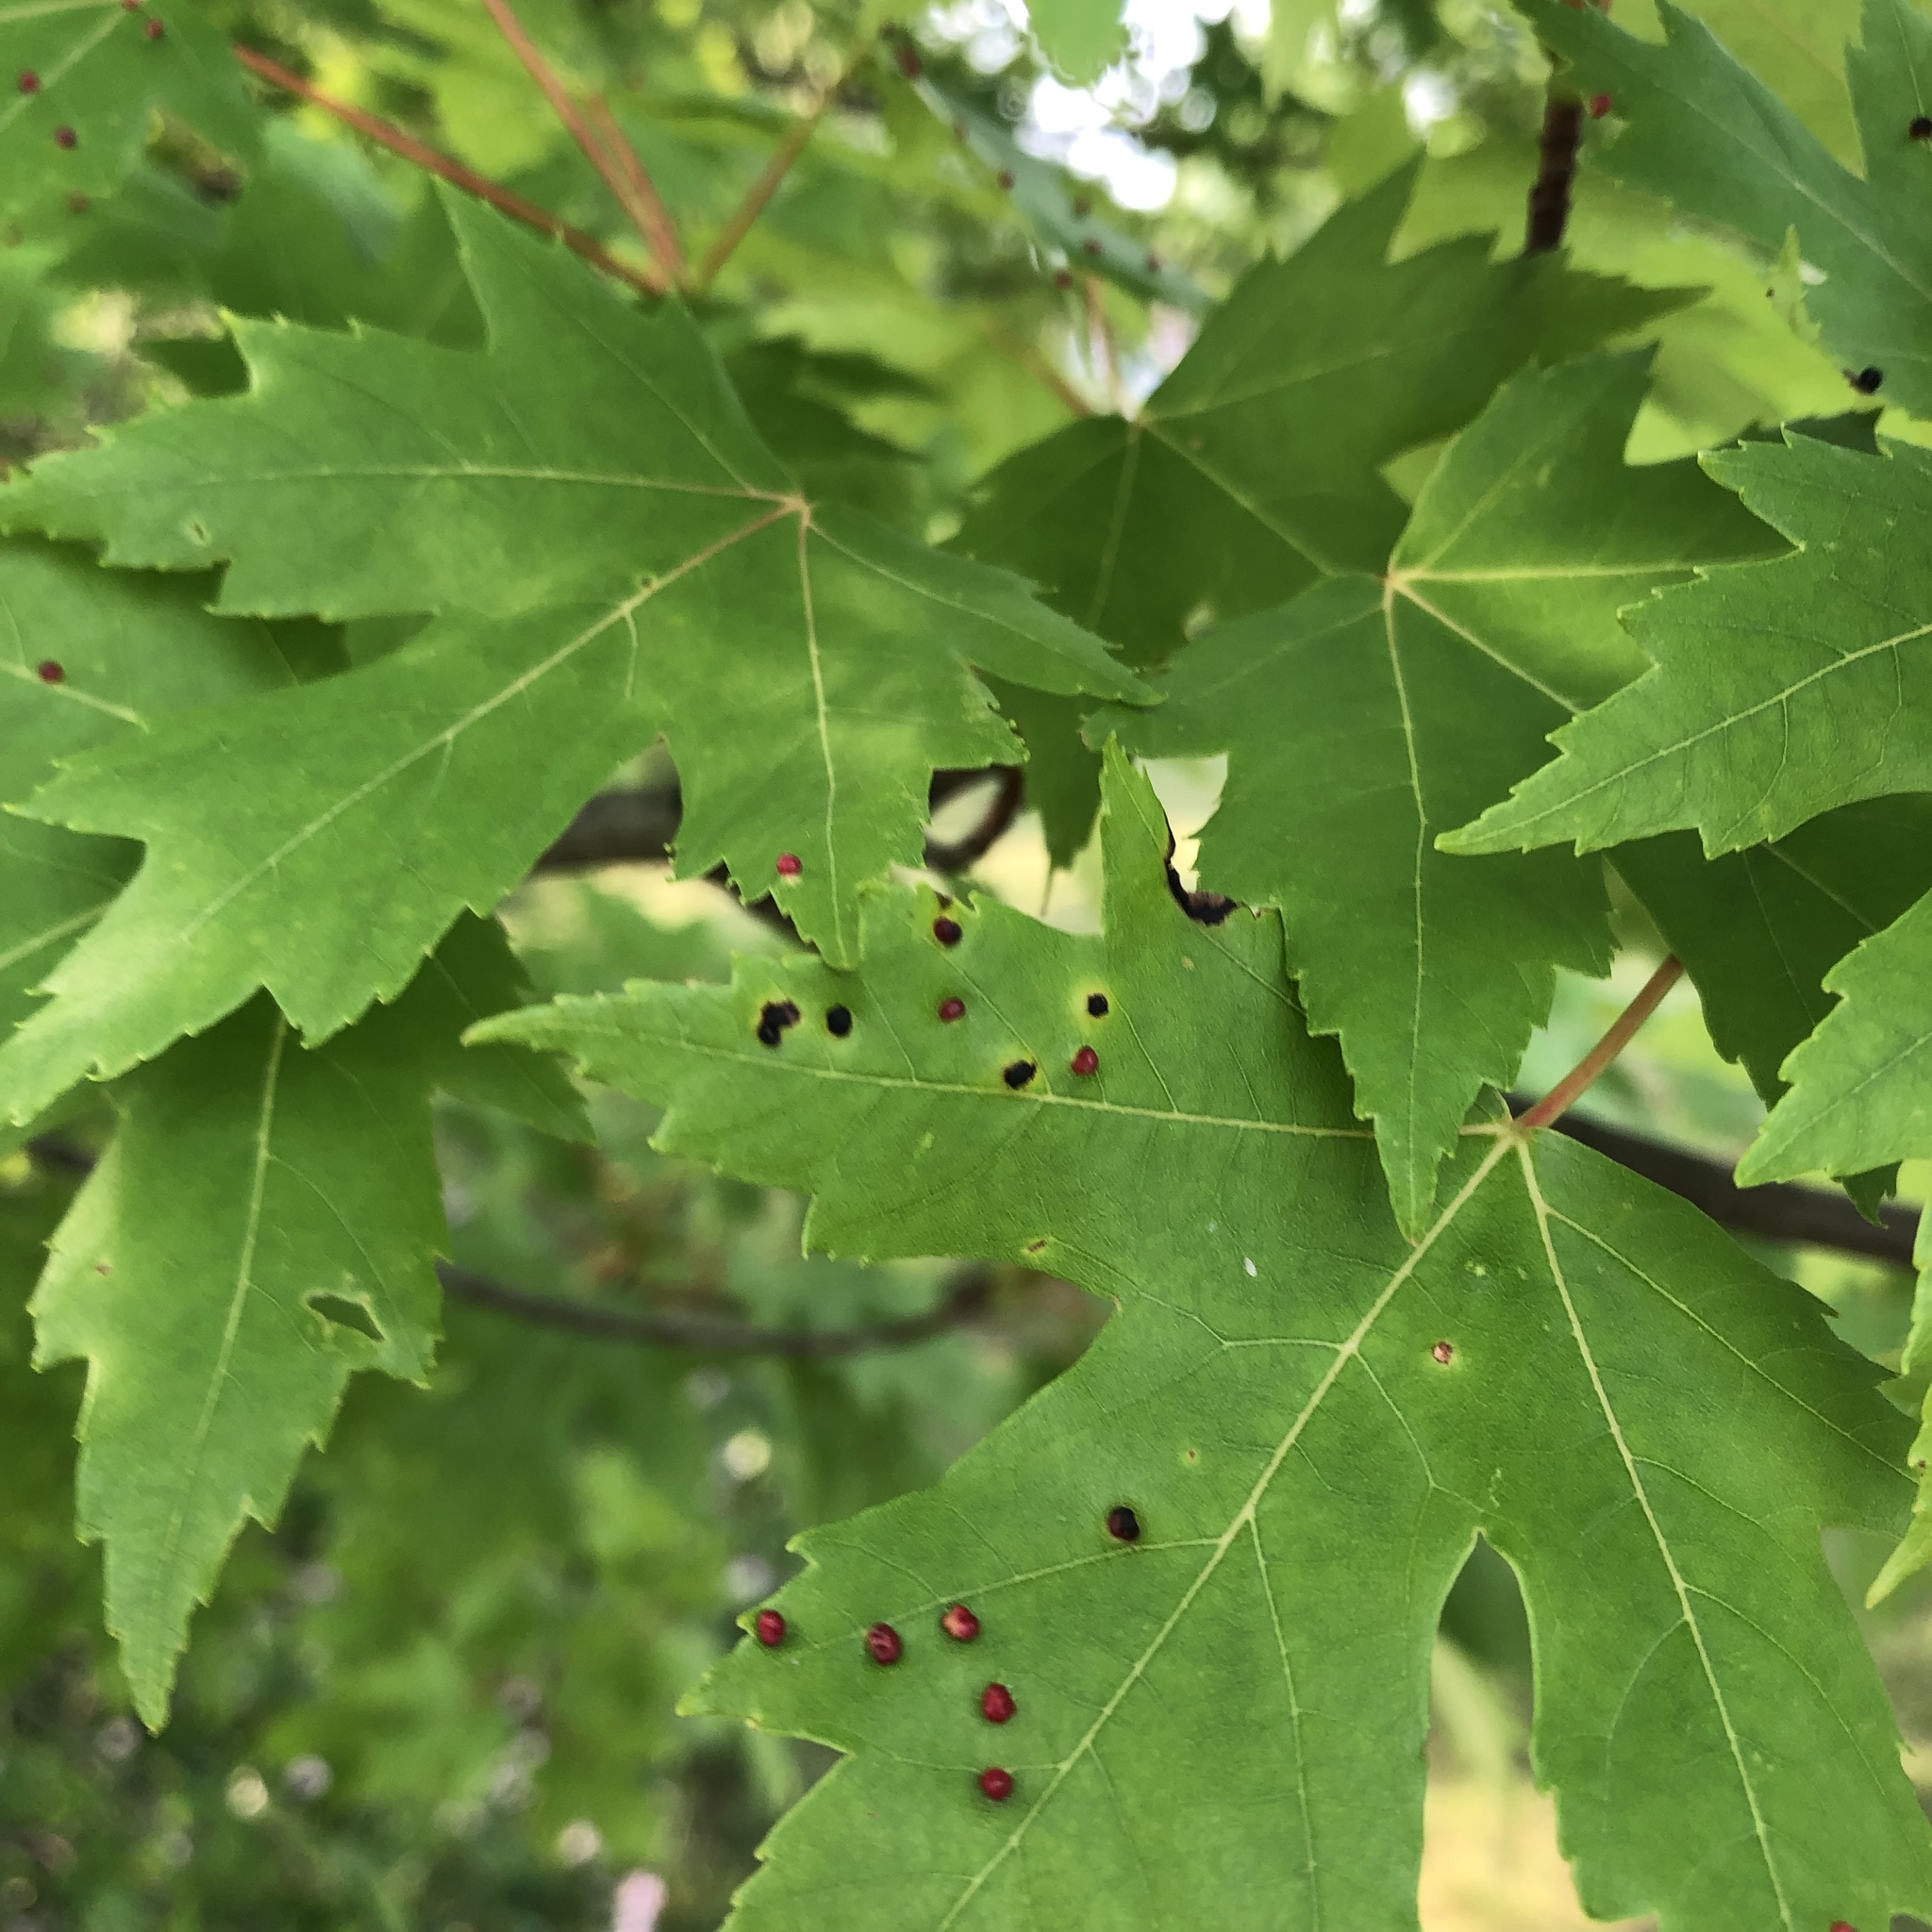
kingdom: Animalia
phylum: Arthropoda
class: Arachnida
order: Trombidiformes
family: Eriophyidae
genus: Vasates
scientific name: Vasates quadripedes
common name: Maple bladder gall mite
